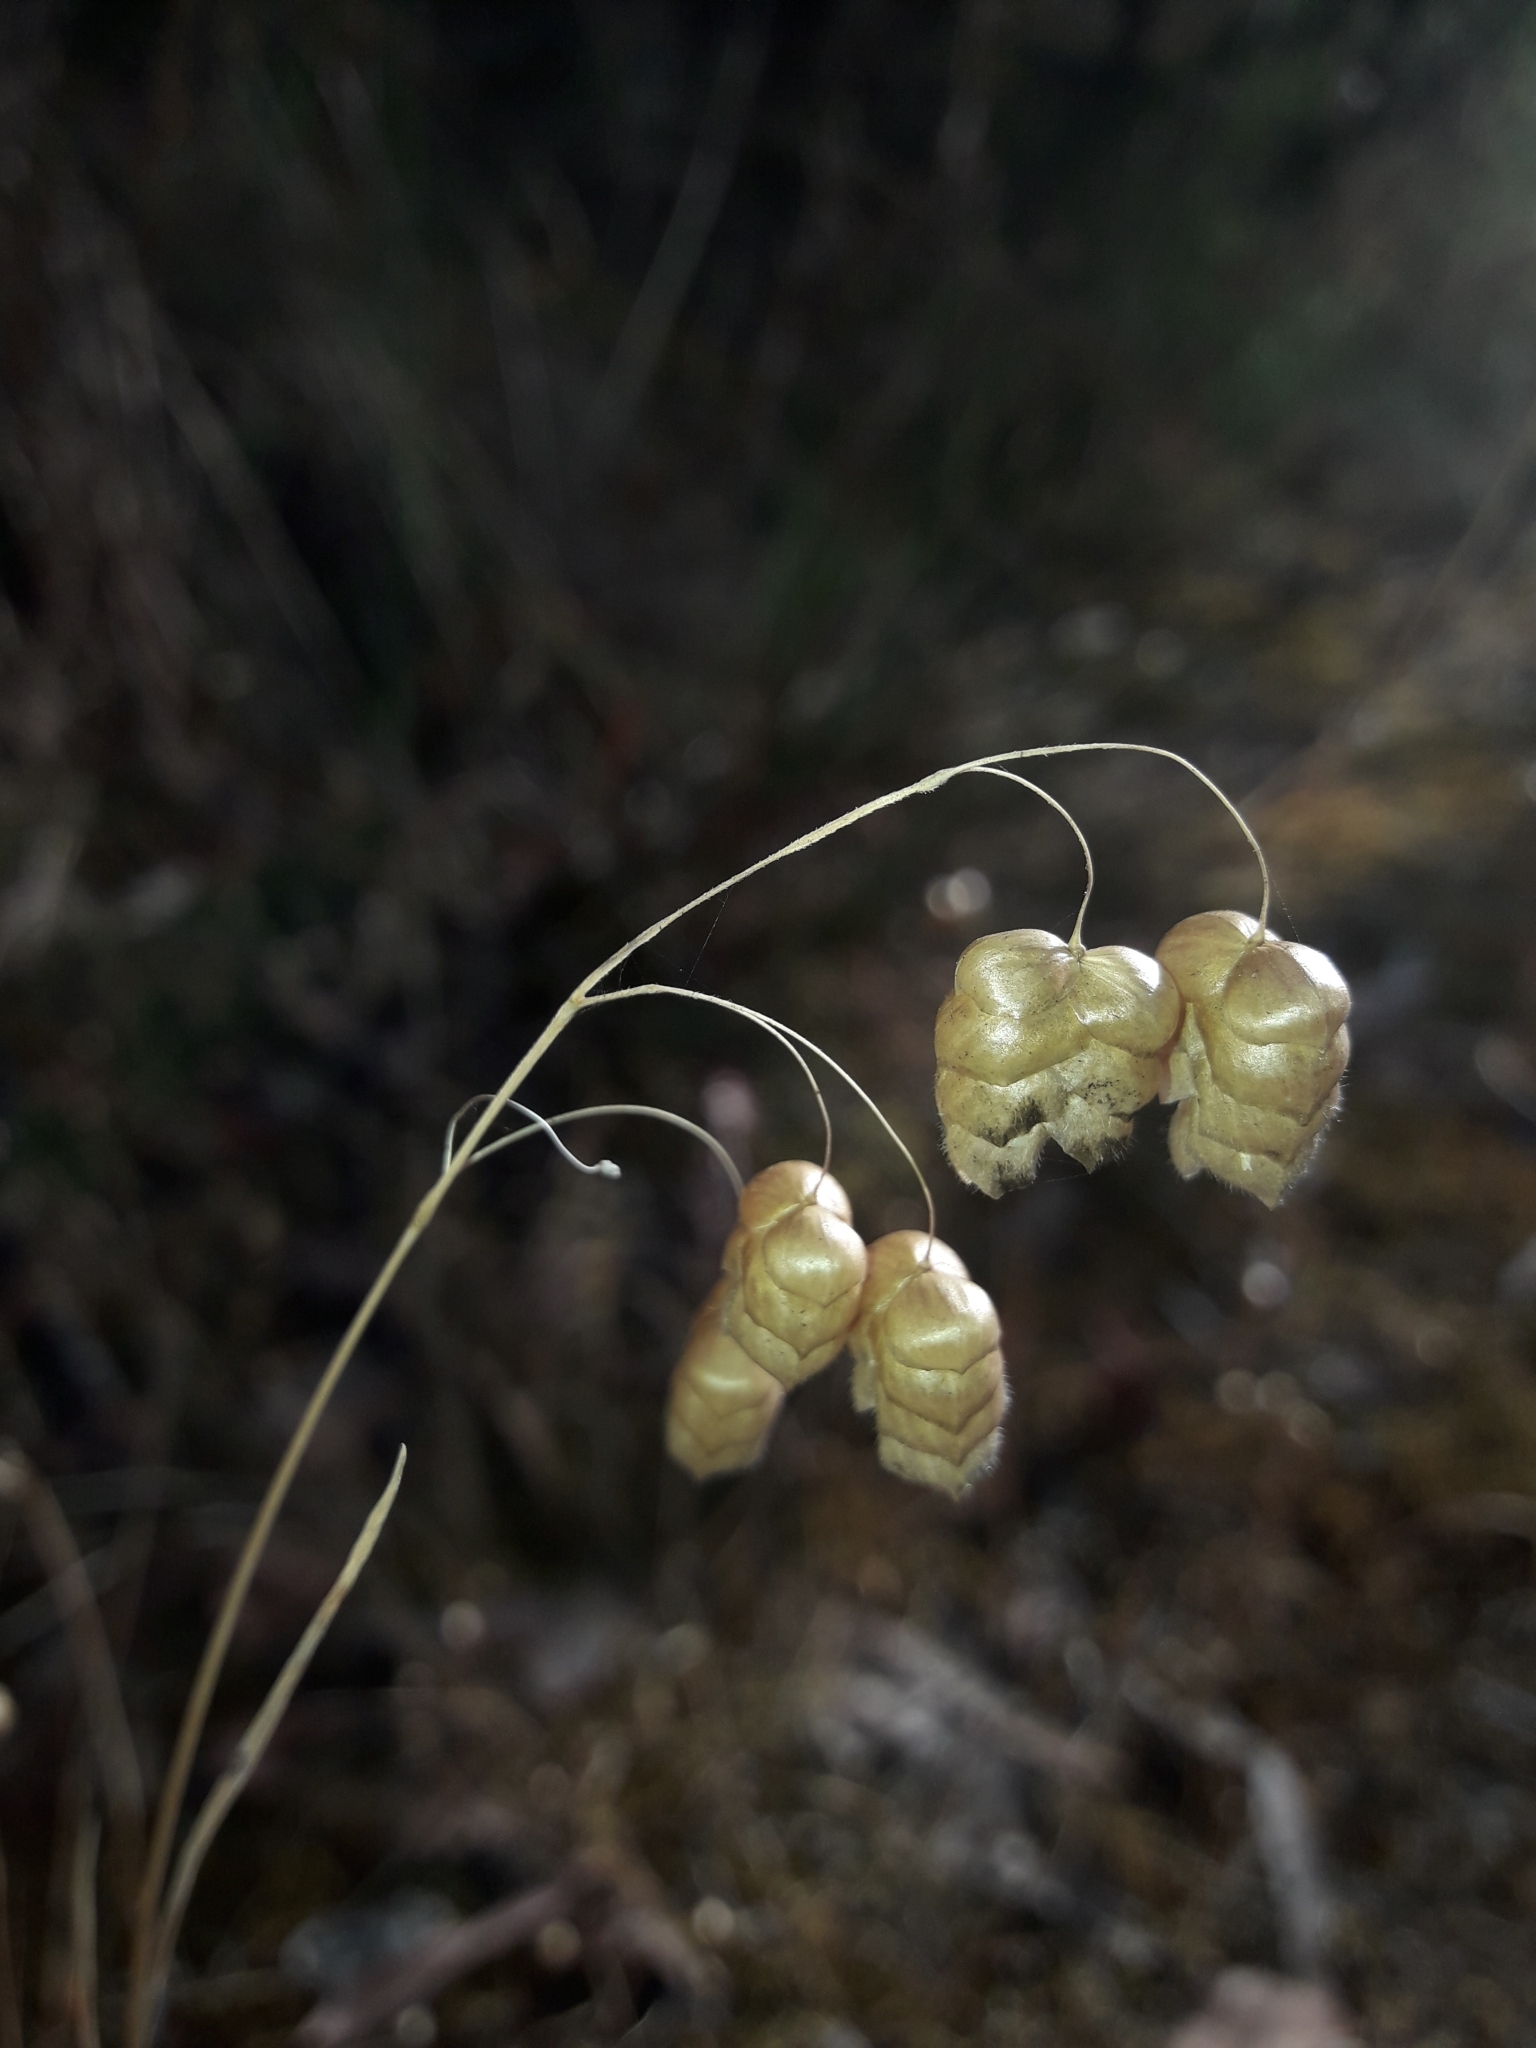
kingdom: Plantae
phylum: Tracheophyta
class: Liliopsida
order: Poales
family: Poaceae
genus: Briza
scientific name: Briza maxima
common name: Big quakinggrass
